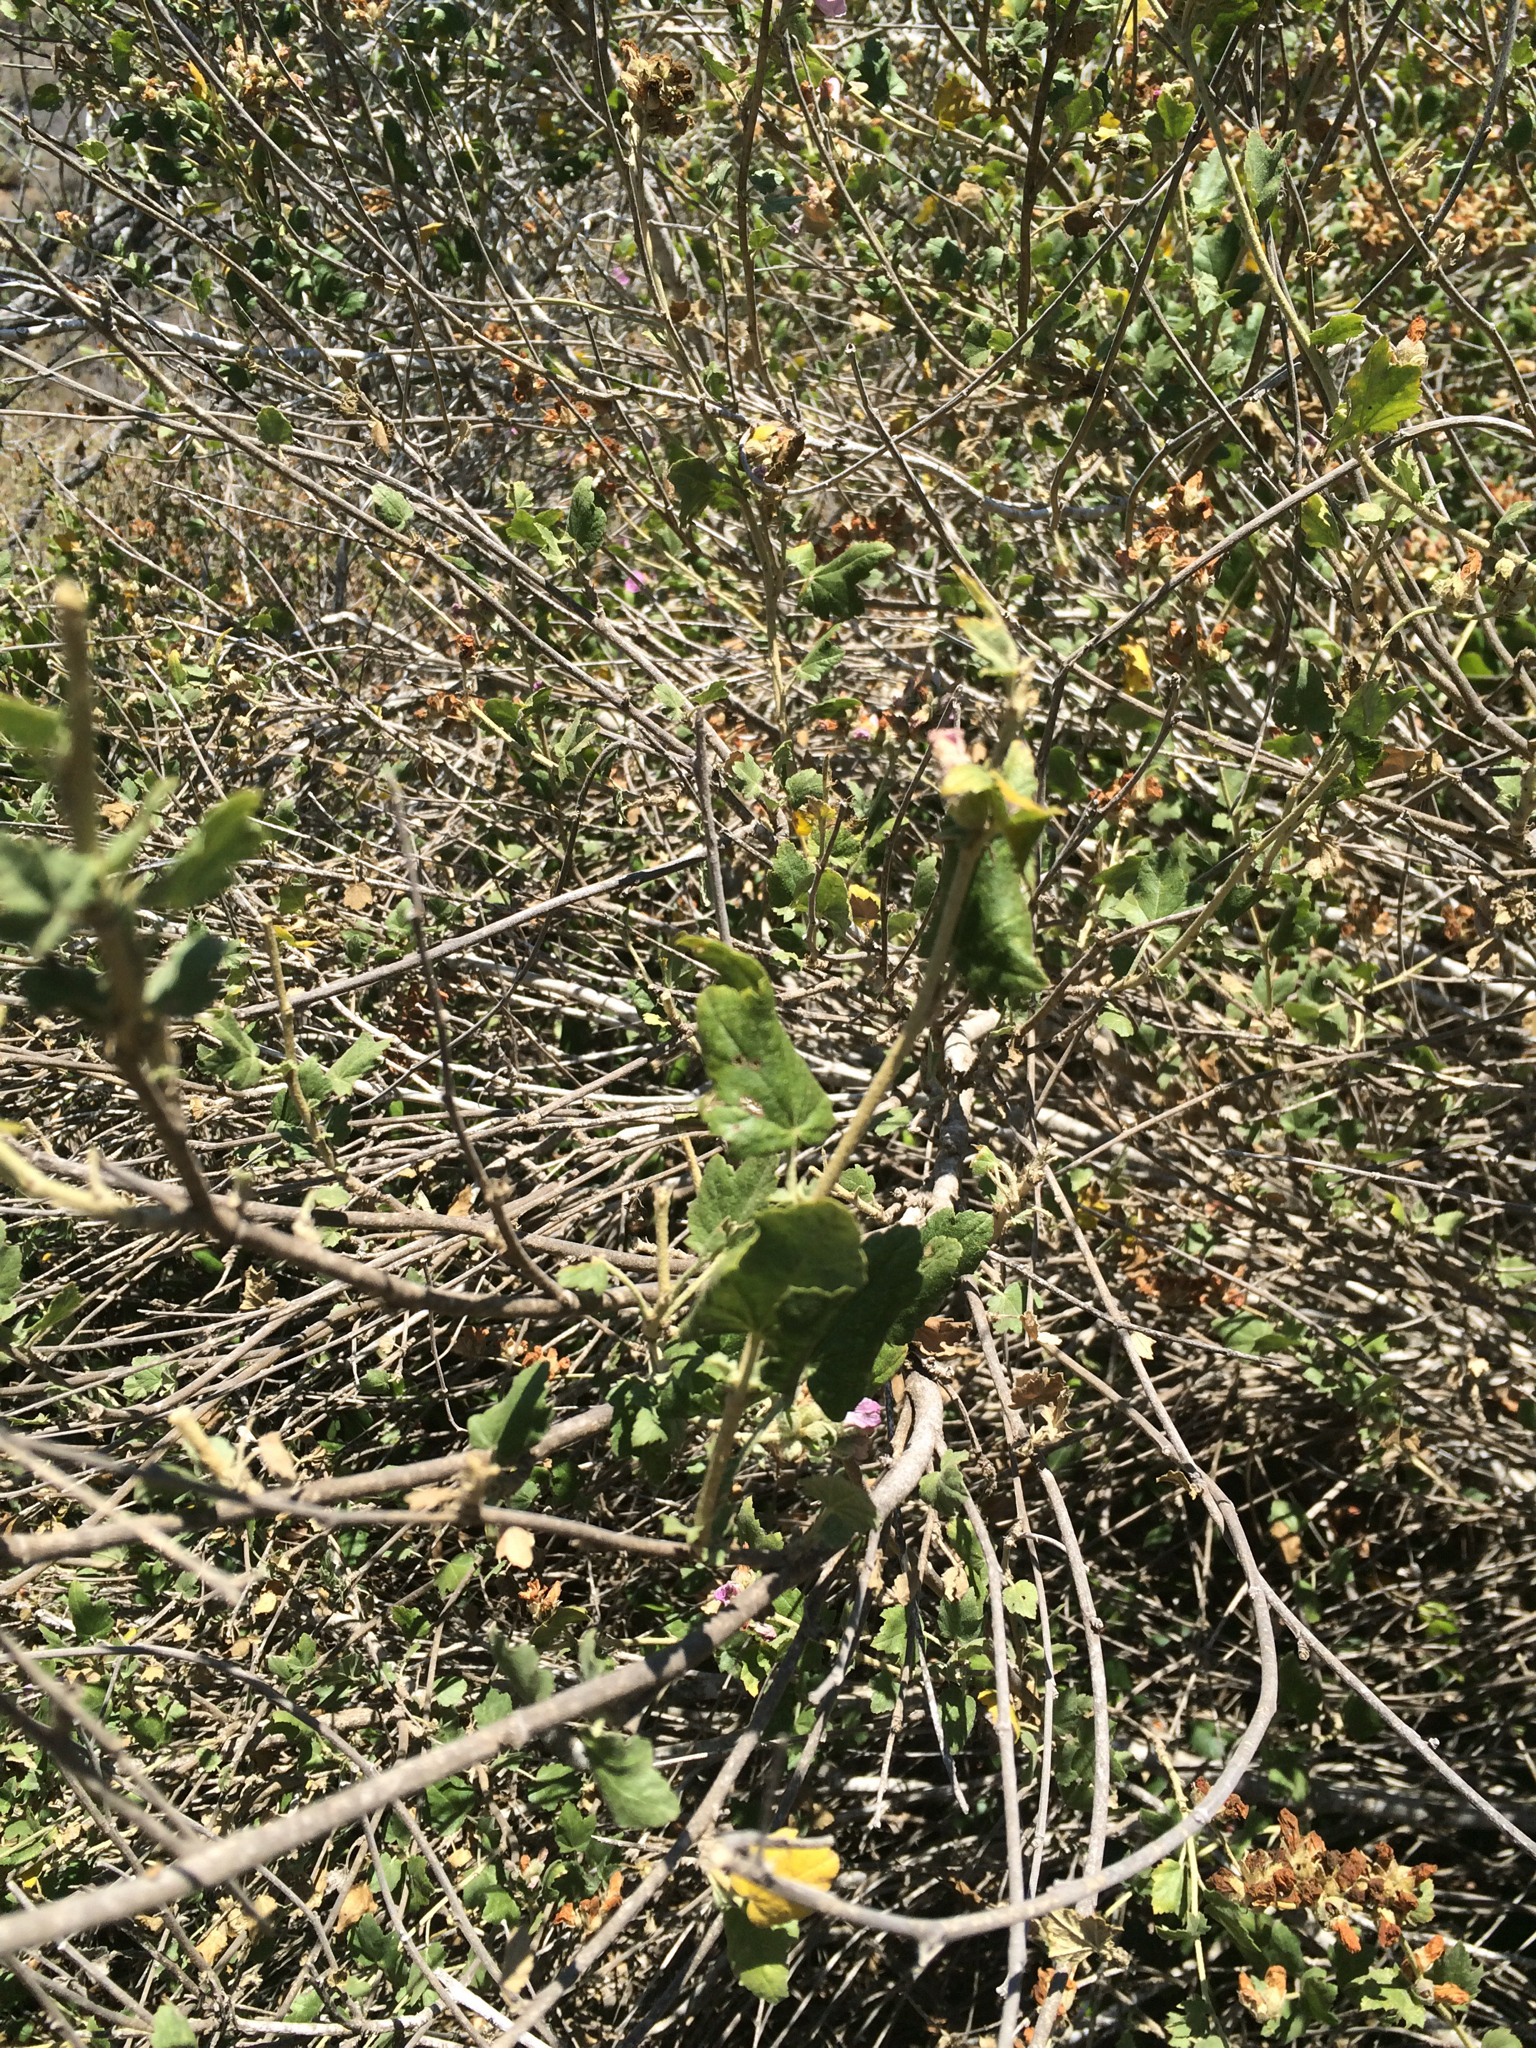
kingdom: Plantae
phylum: Tracheophyta
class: Magnoliopsida
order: Malvales
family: Malvaceae
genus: Malacothamnus
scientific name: Malacothamnus fasciculatus
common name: Sant cruz island bush-mallow
